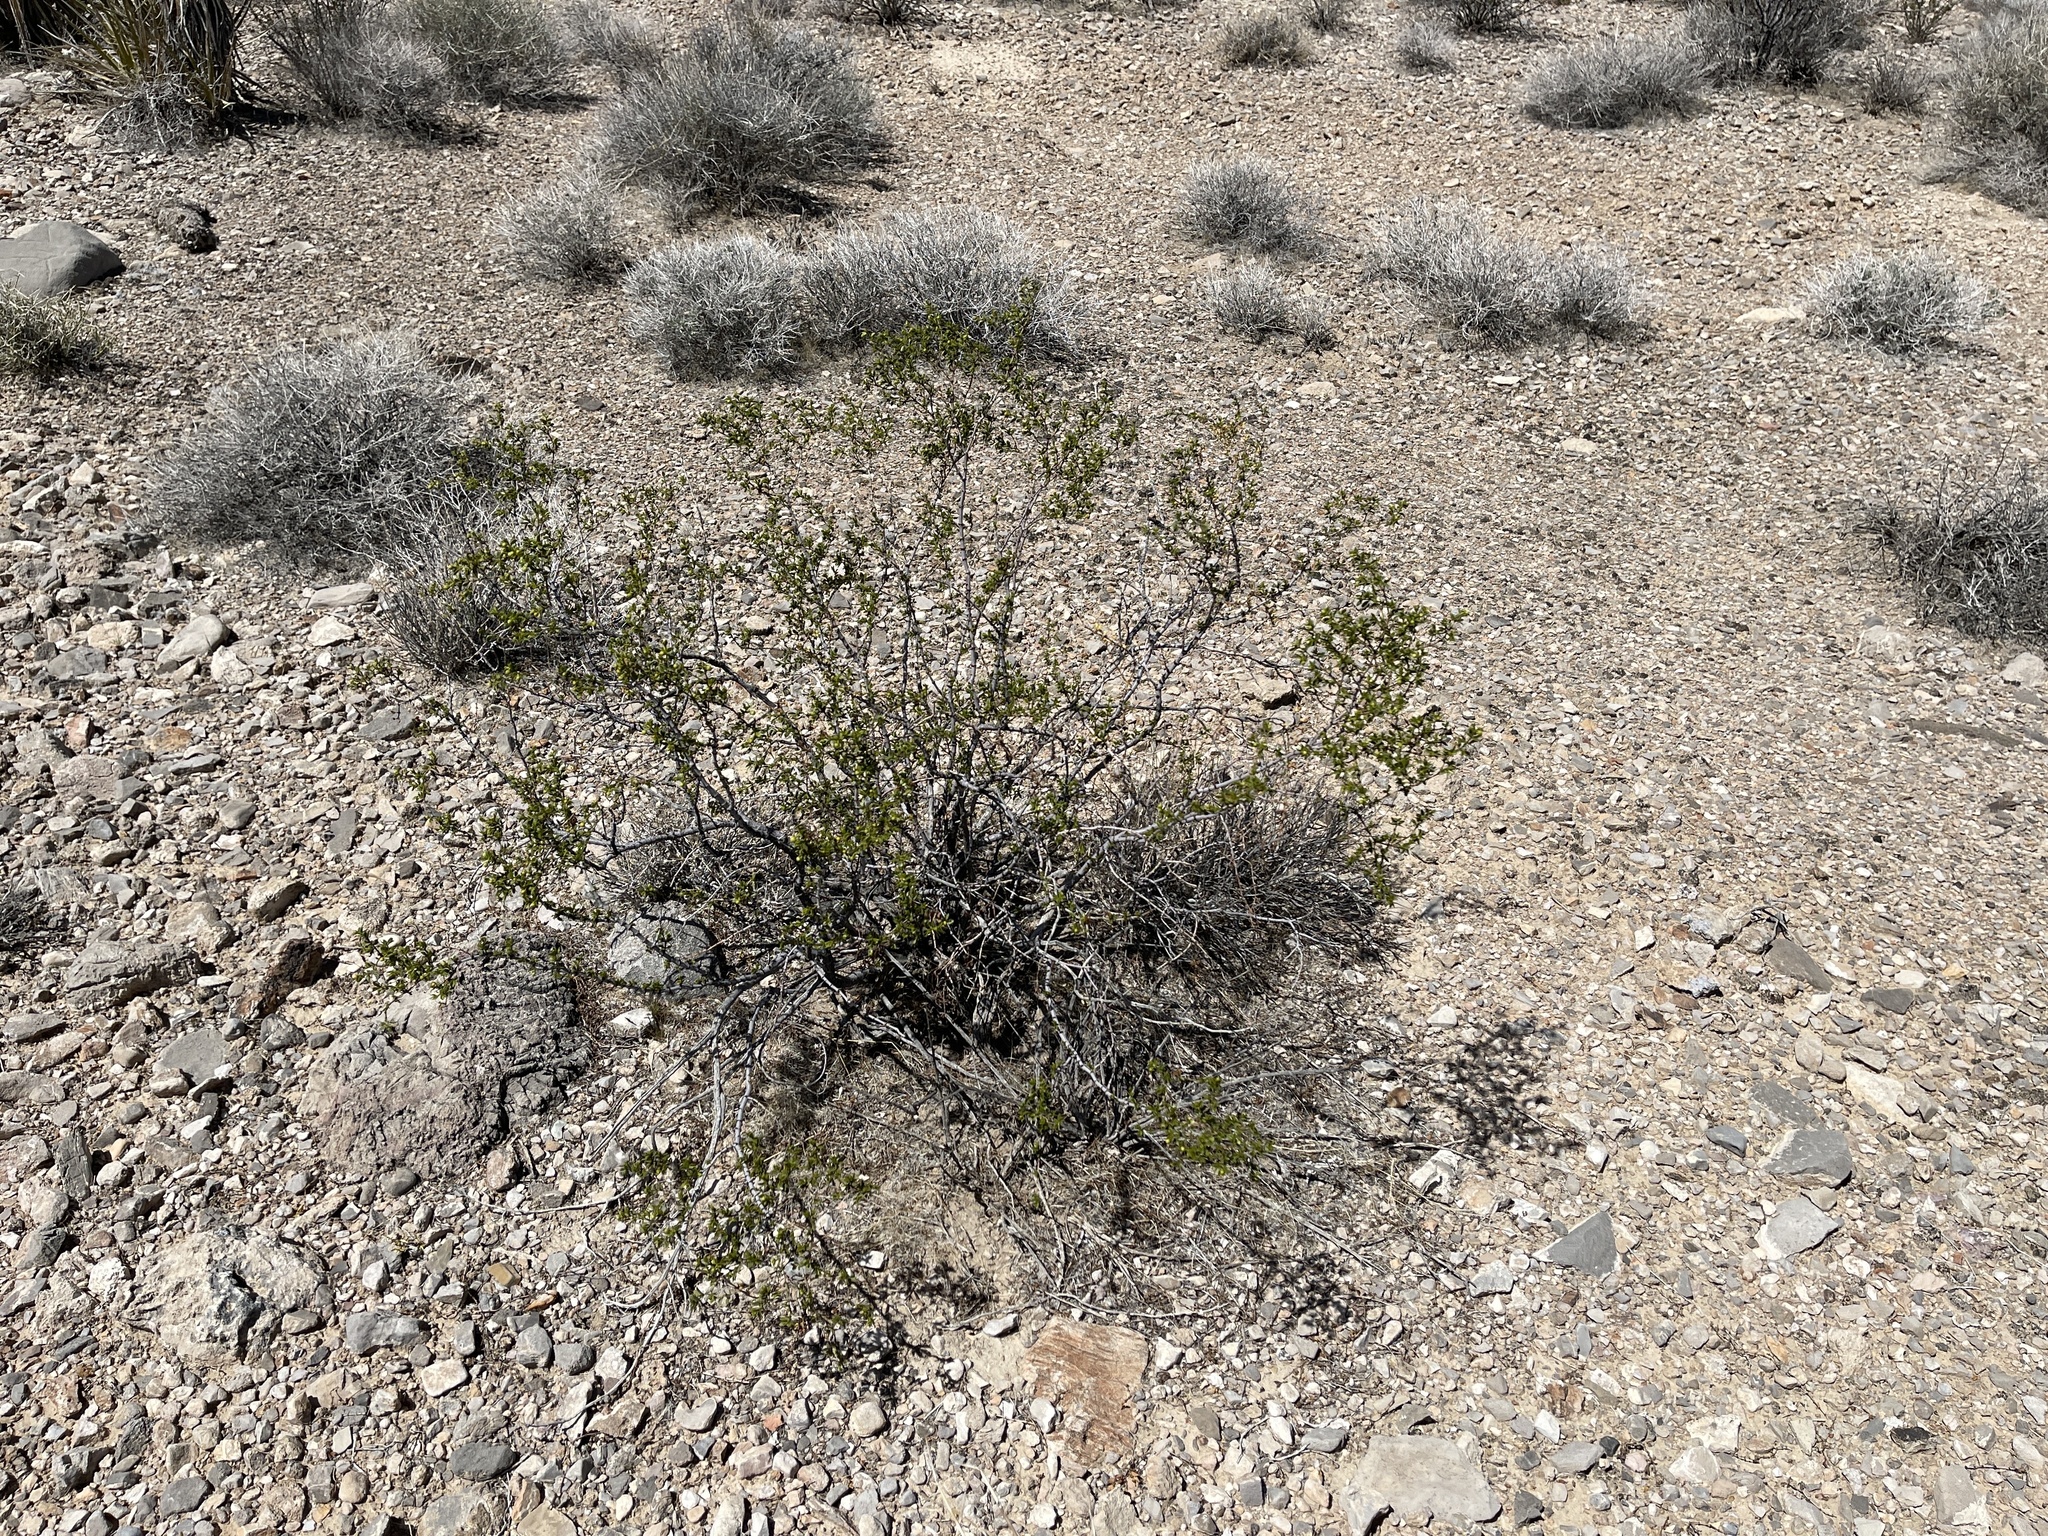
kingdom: Plantae
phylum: Tracheophyta
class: Magnoliopsida
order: Zygophyllales
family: Zygophyllaceae
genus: Larrea
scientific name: Larrea tridentata
